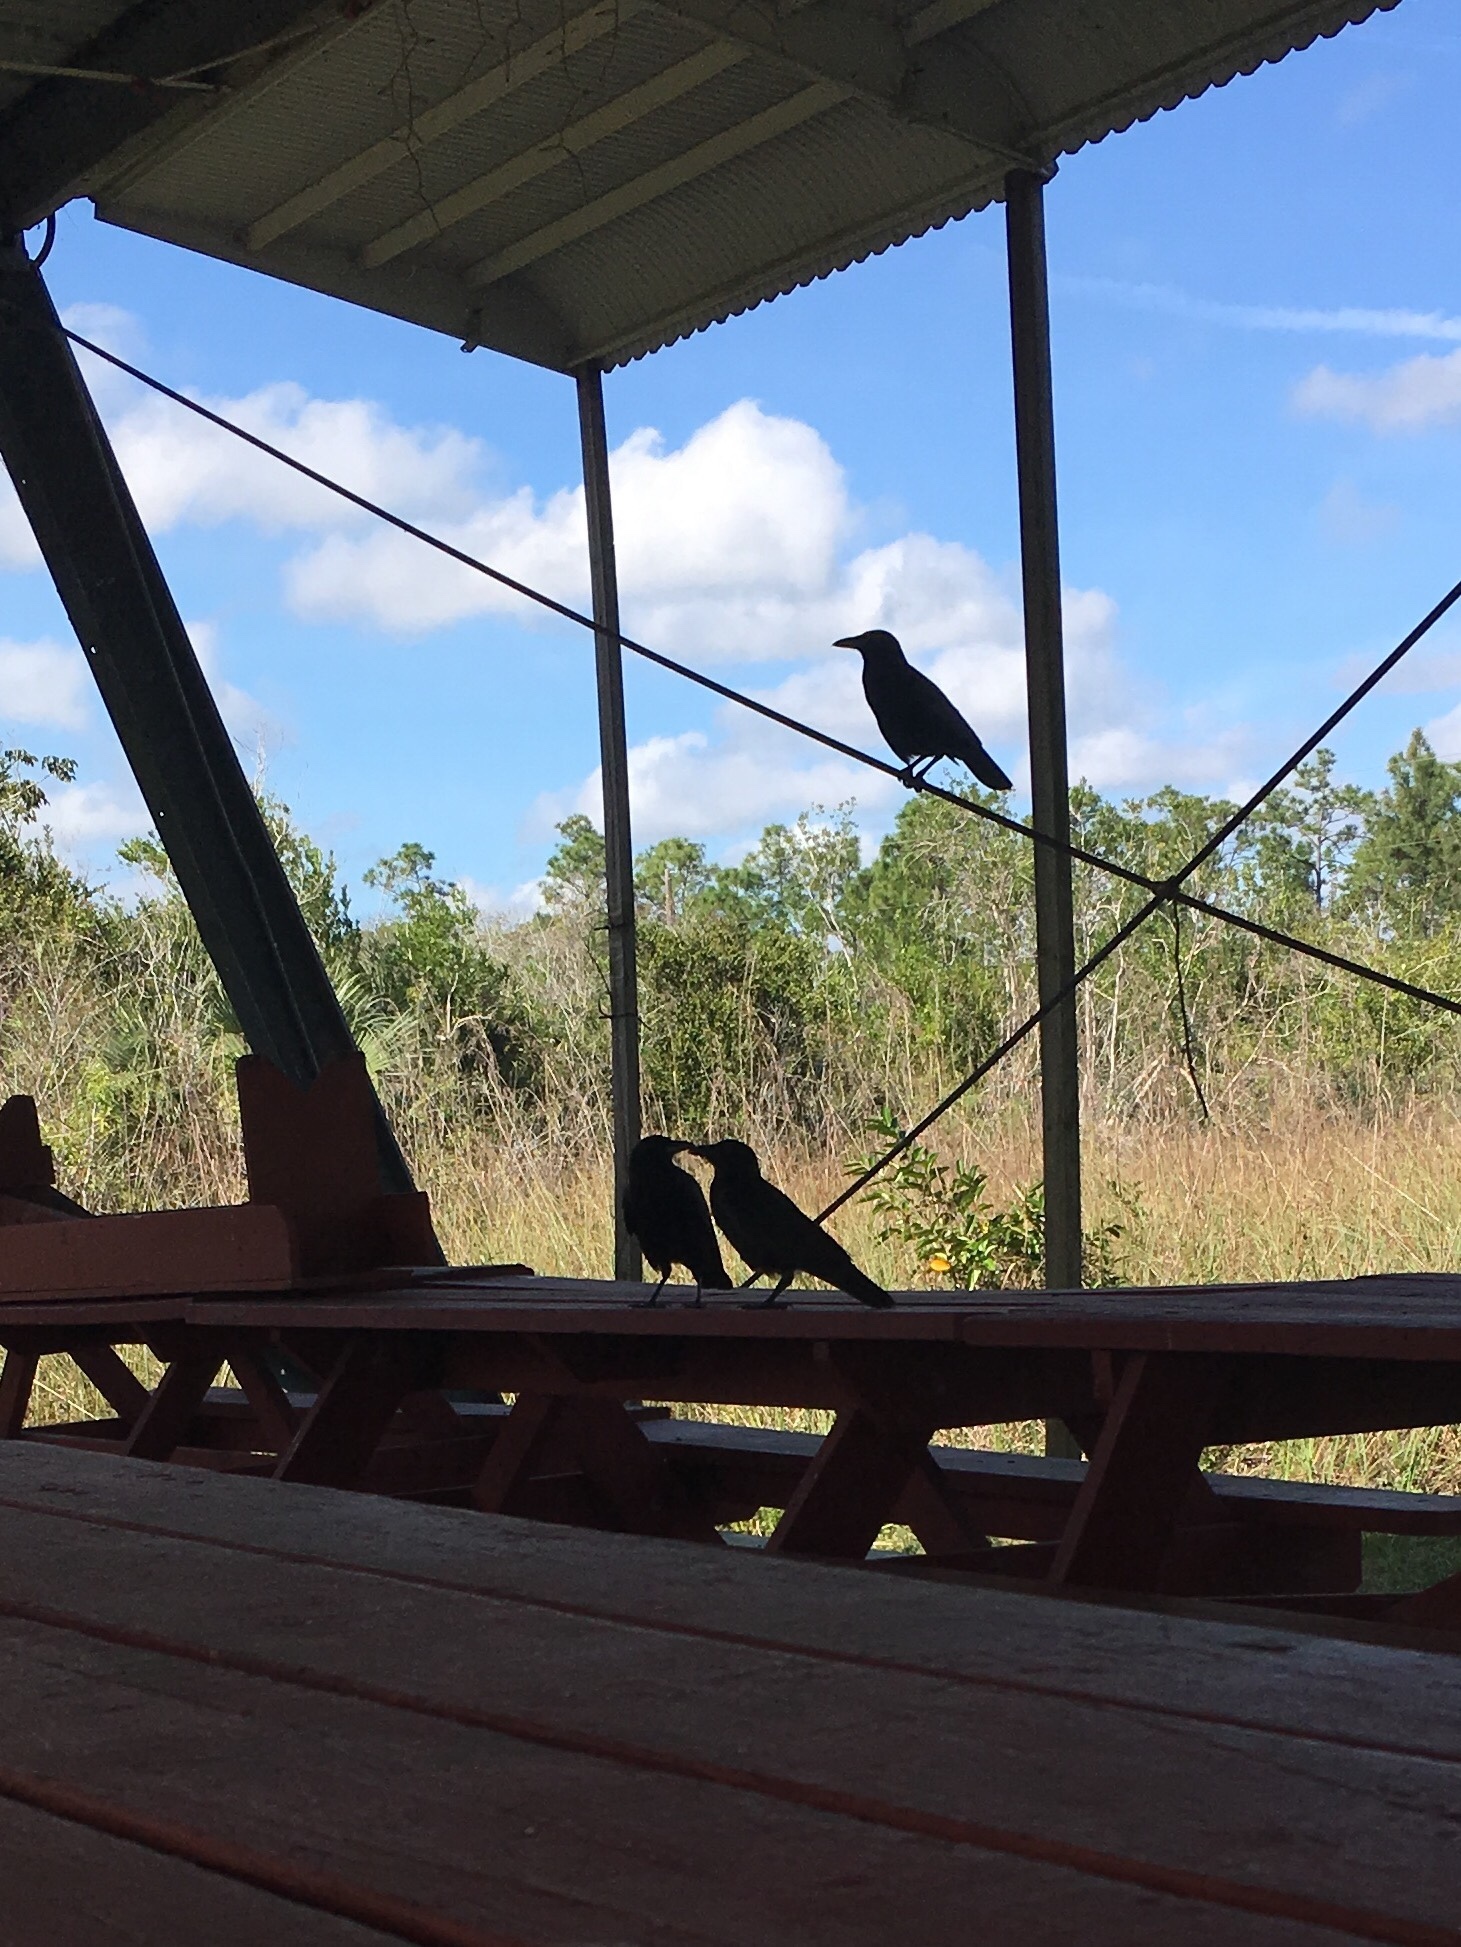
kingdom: Animalia
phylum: Chordata
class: Aves
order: Passeriformes
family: Corvidae
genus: Corvus
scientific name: Corvus brachyrhynchos
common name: American crow
